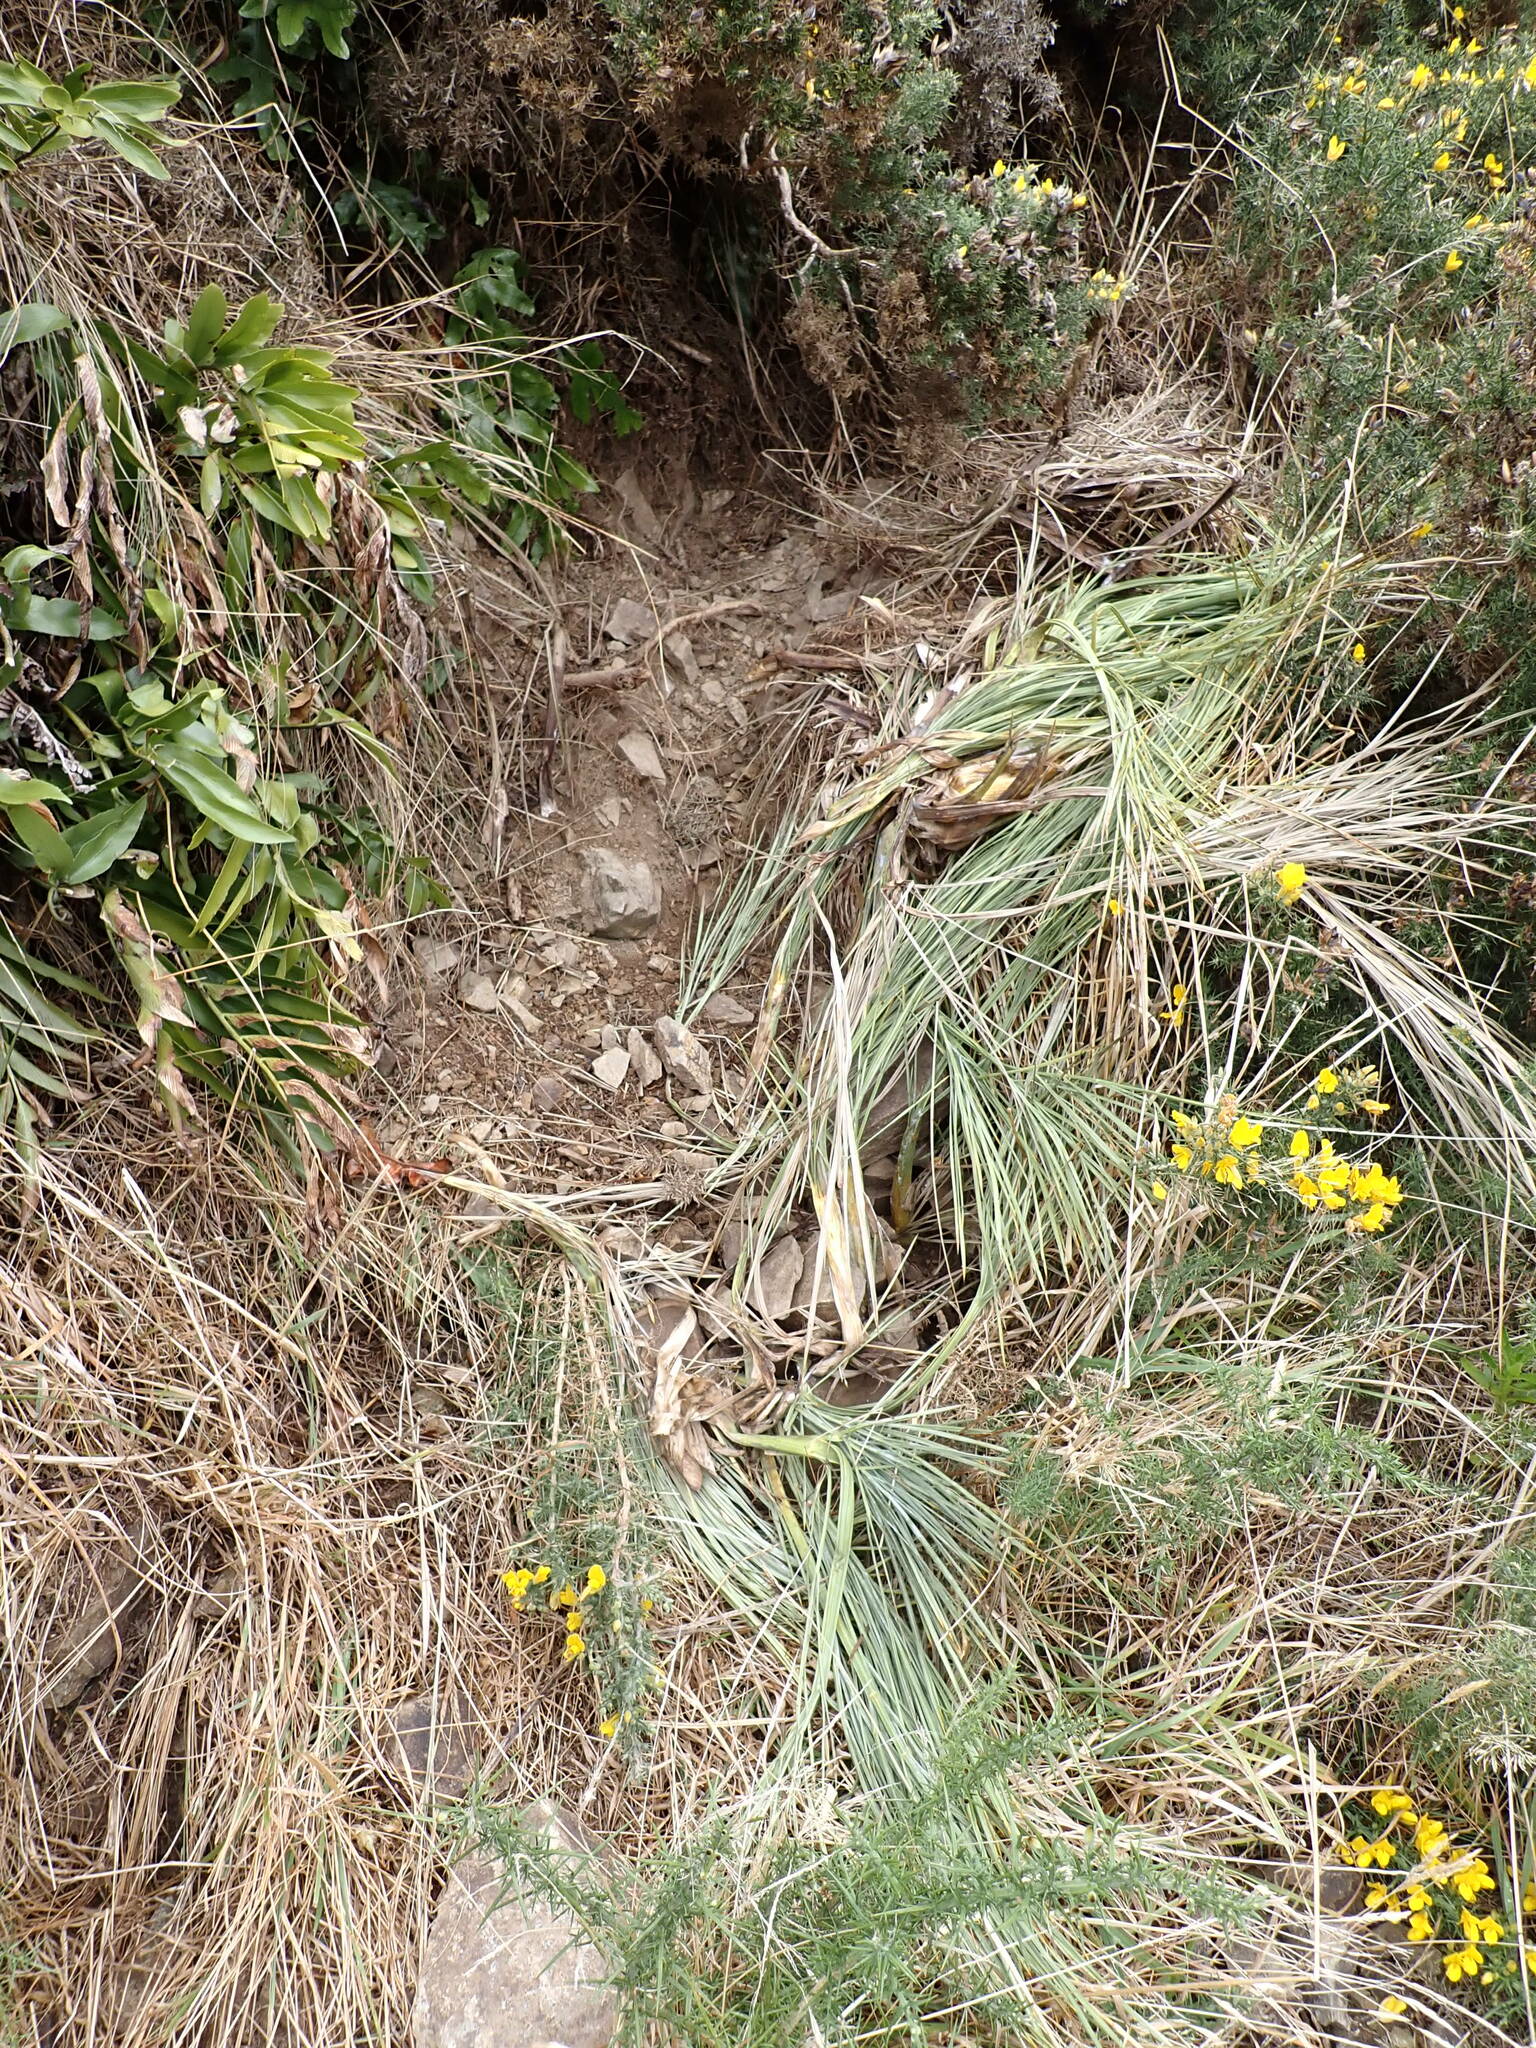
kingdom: Plantae
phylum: Tracheophyta
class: Magnoliopsida
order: Apiales
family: Apiaceae
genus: Aciphylla
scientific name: Aciphylla squarrosa
